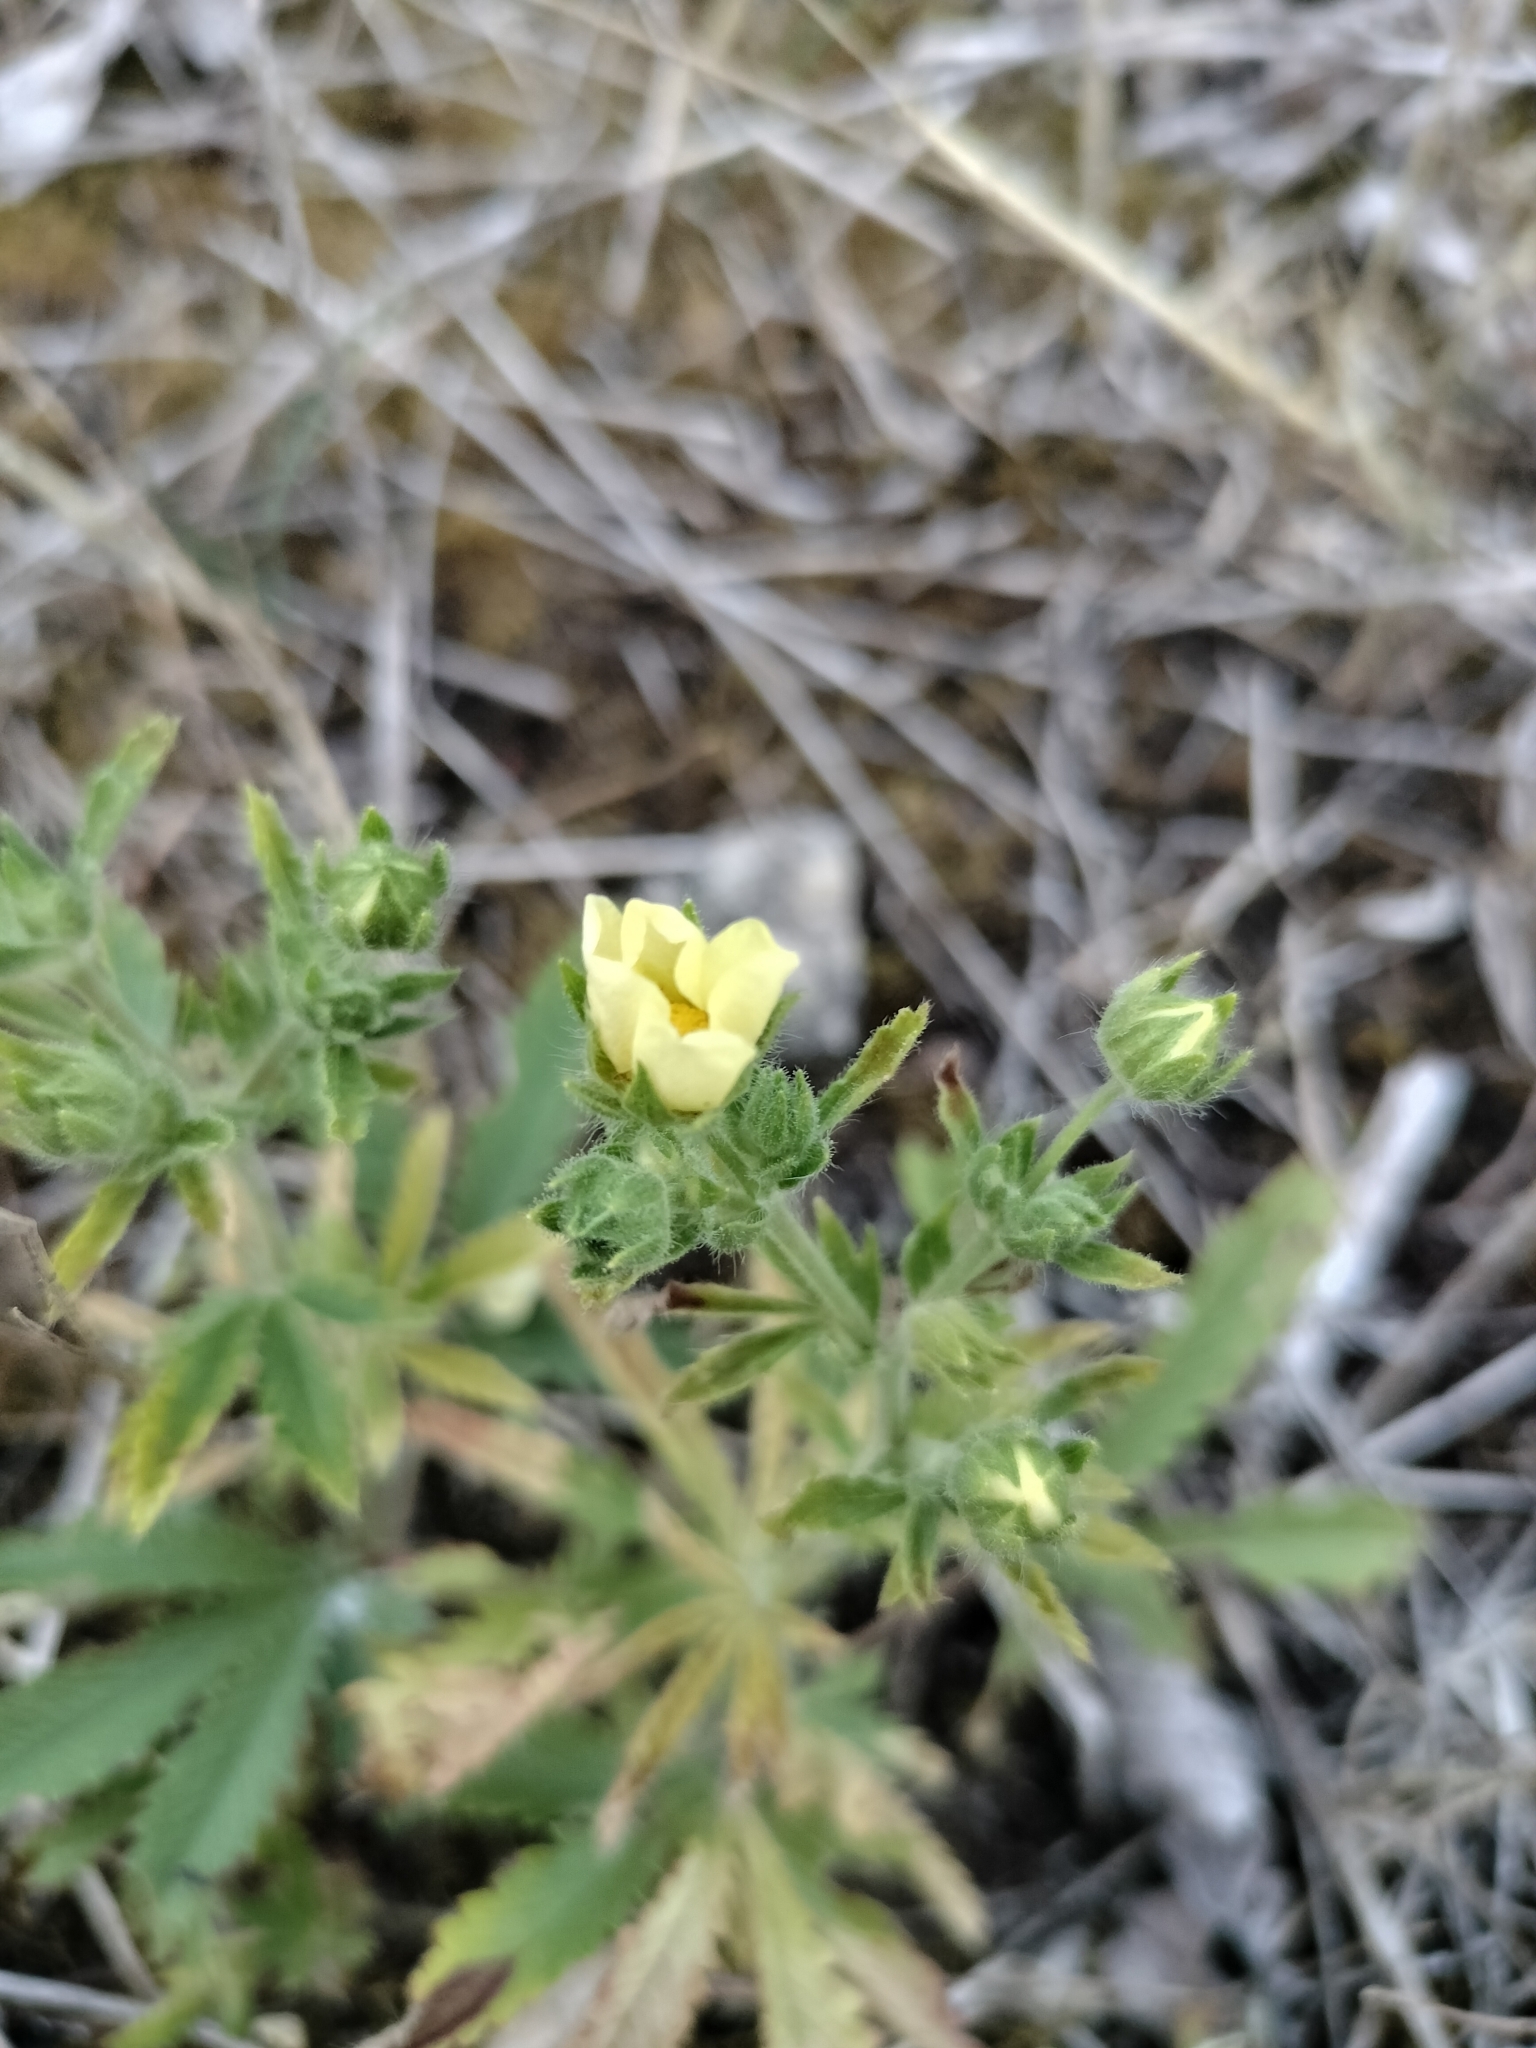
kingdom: Plantae
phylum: Tracheophyta
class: Magnoliopsida
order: Rosales
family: Rosaceae
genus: Potentilla
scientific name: Potentilla recta
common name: Sulphur cinquefoil
